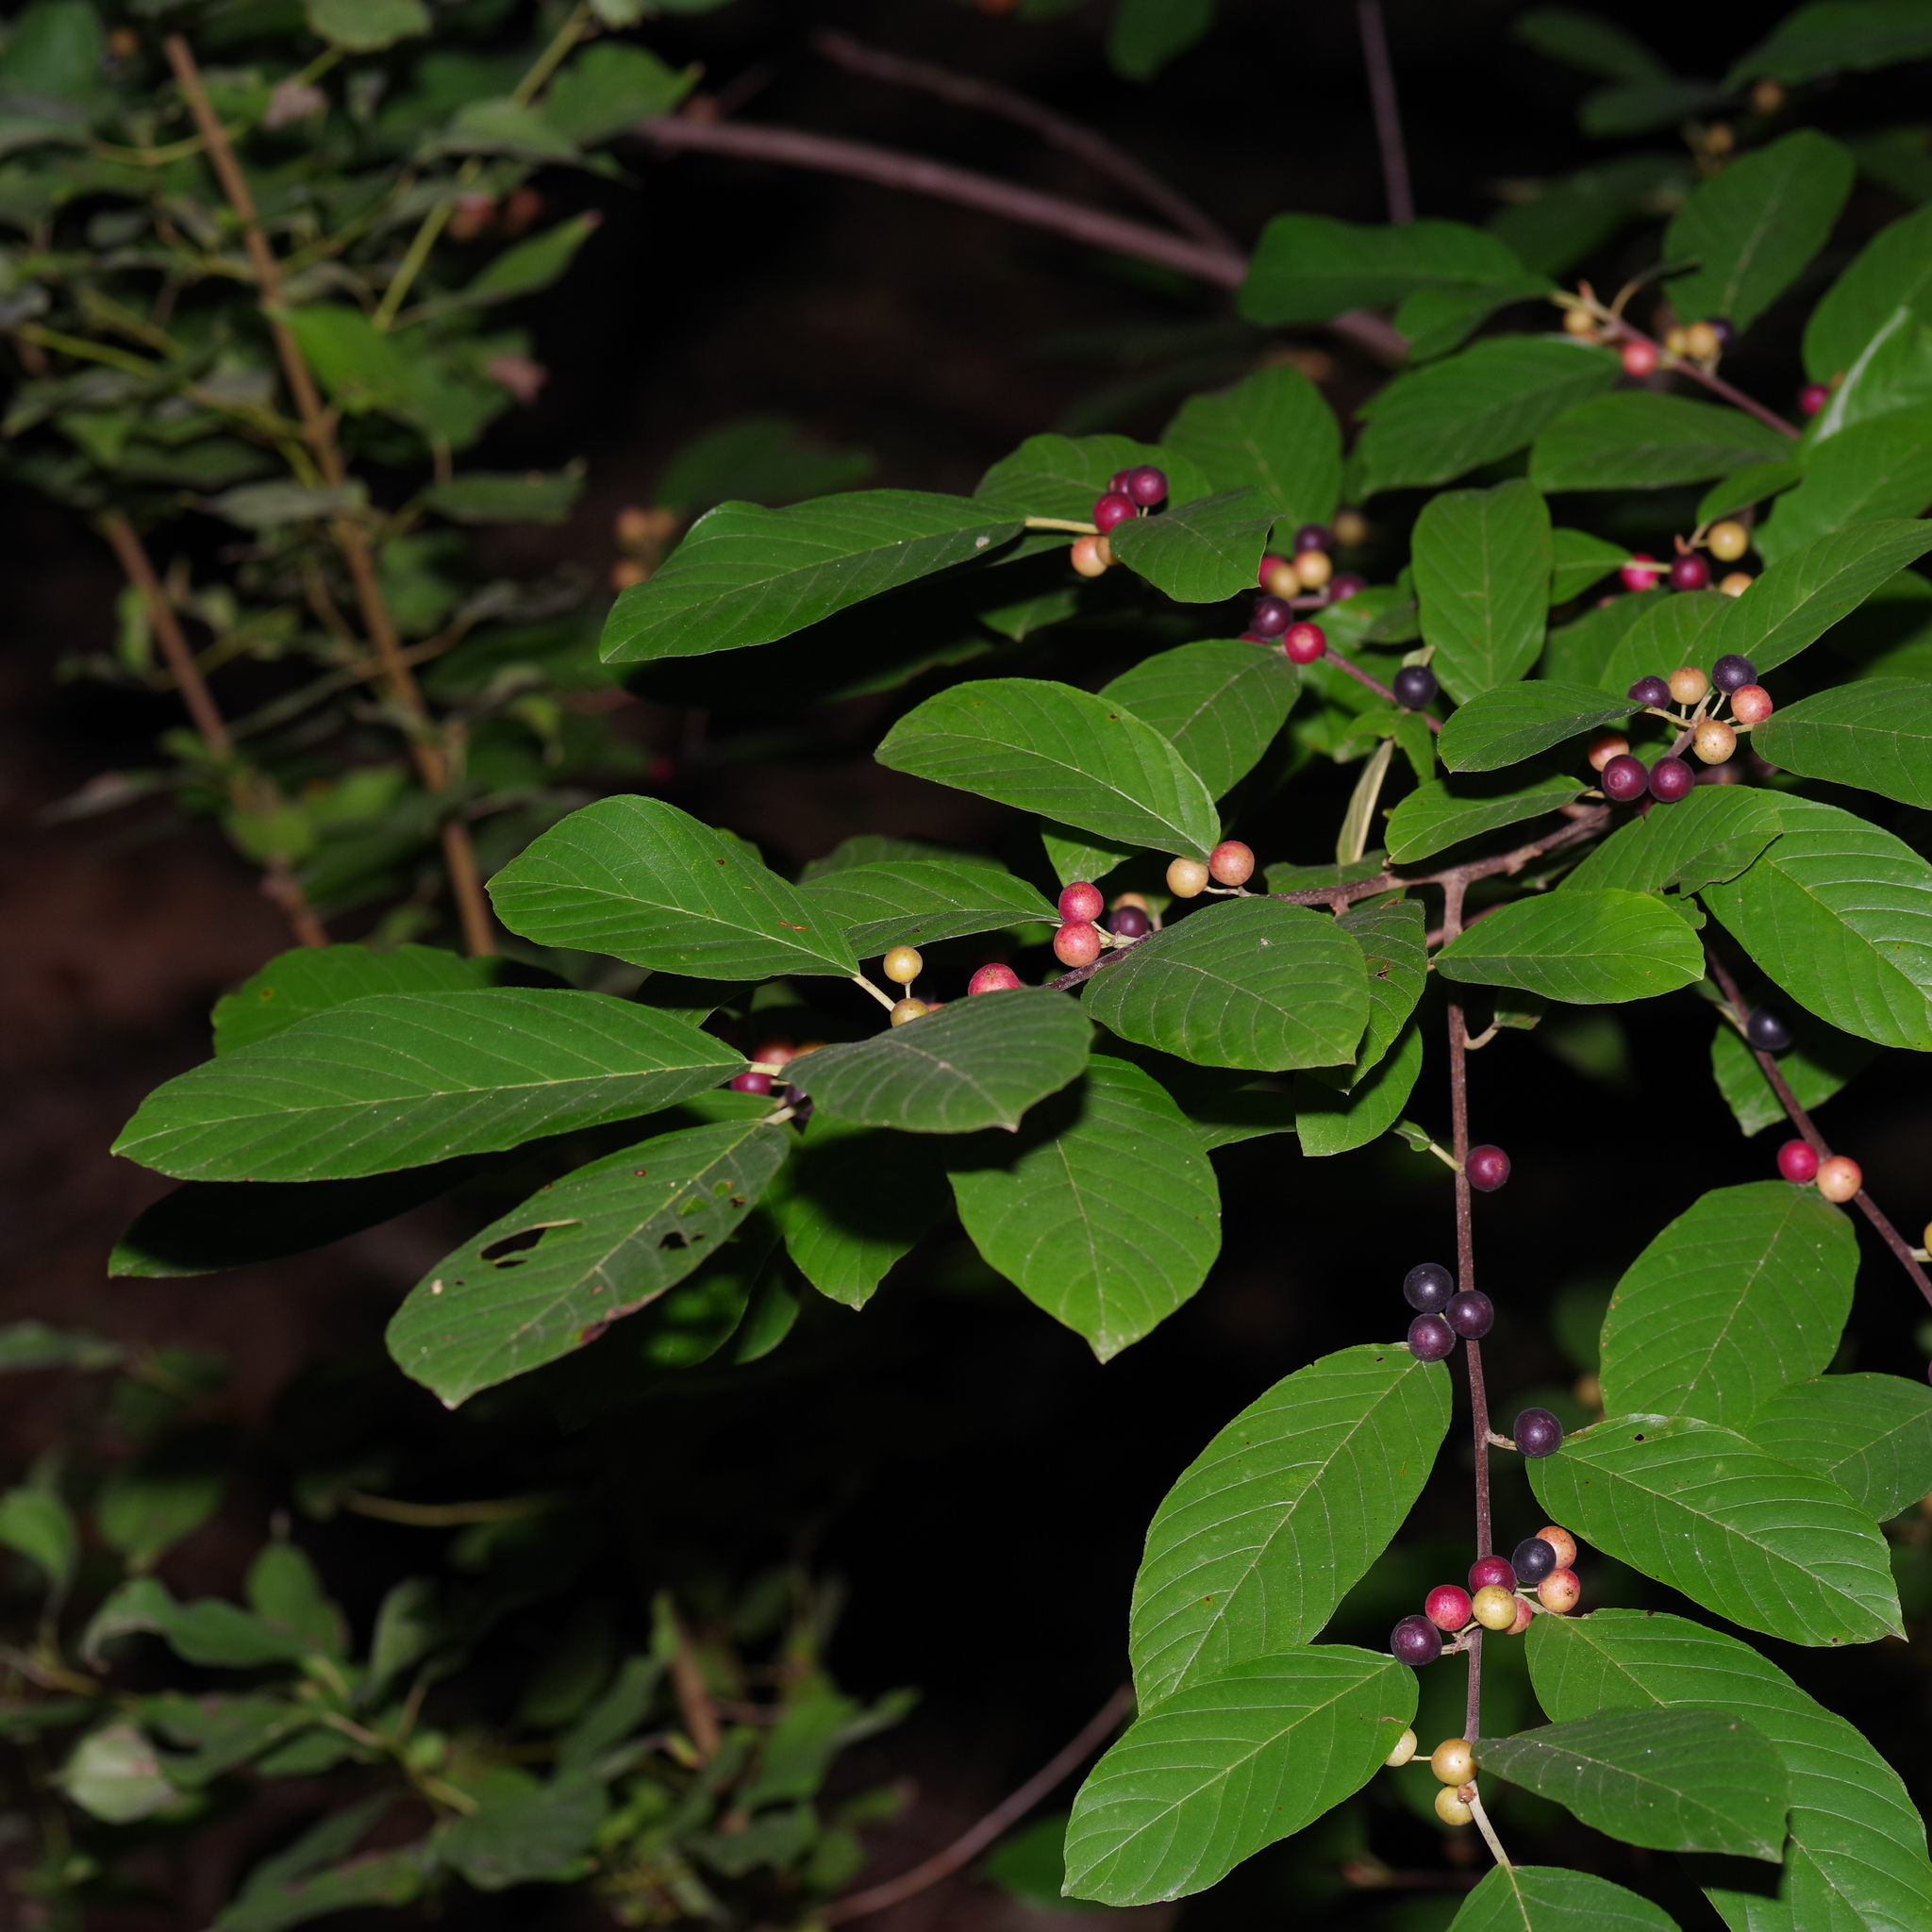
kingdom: Plantae
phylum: Tracheophyta
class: Magnoliopsida
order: Rosales
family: Rhamnaceae
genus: Frangula
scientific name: Frangula caroliniana
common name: Carolina buckthorn
